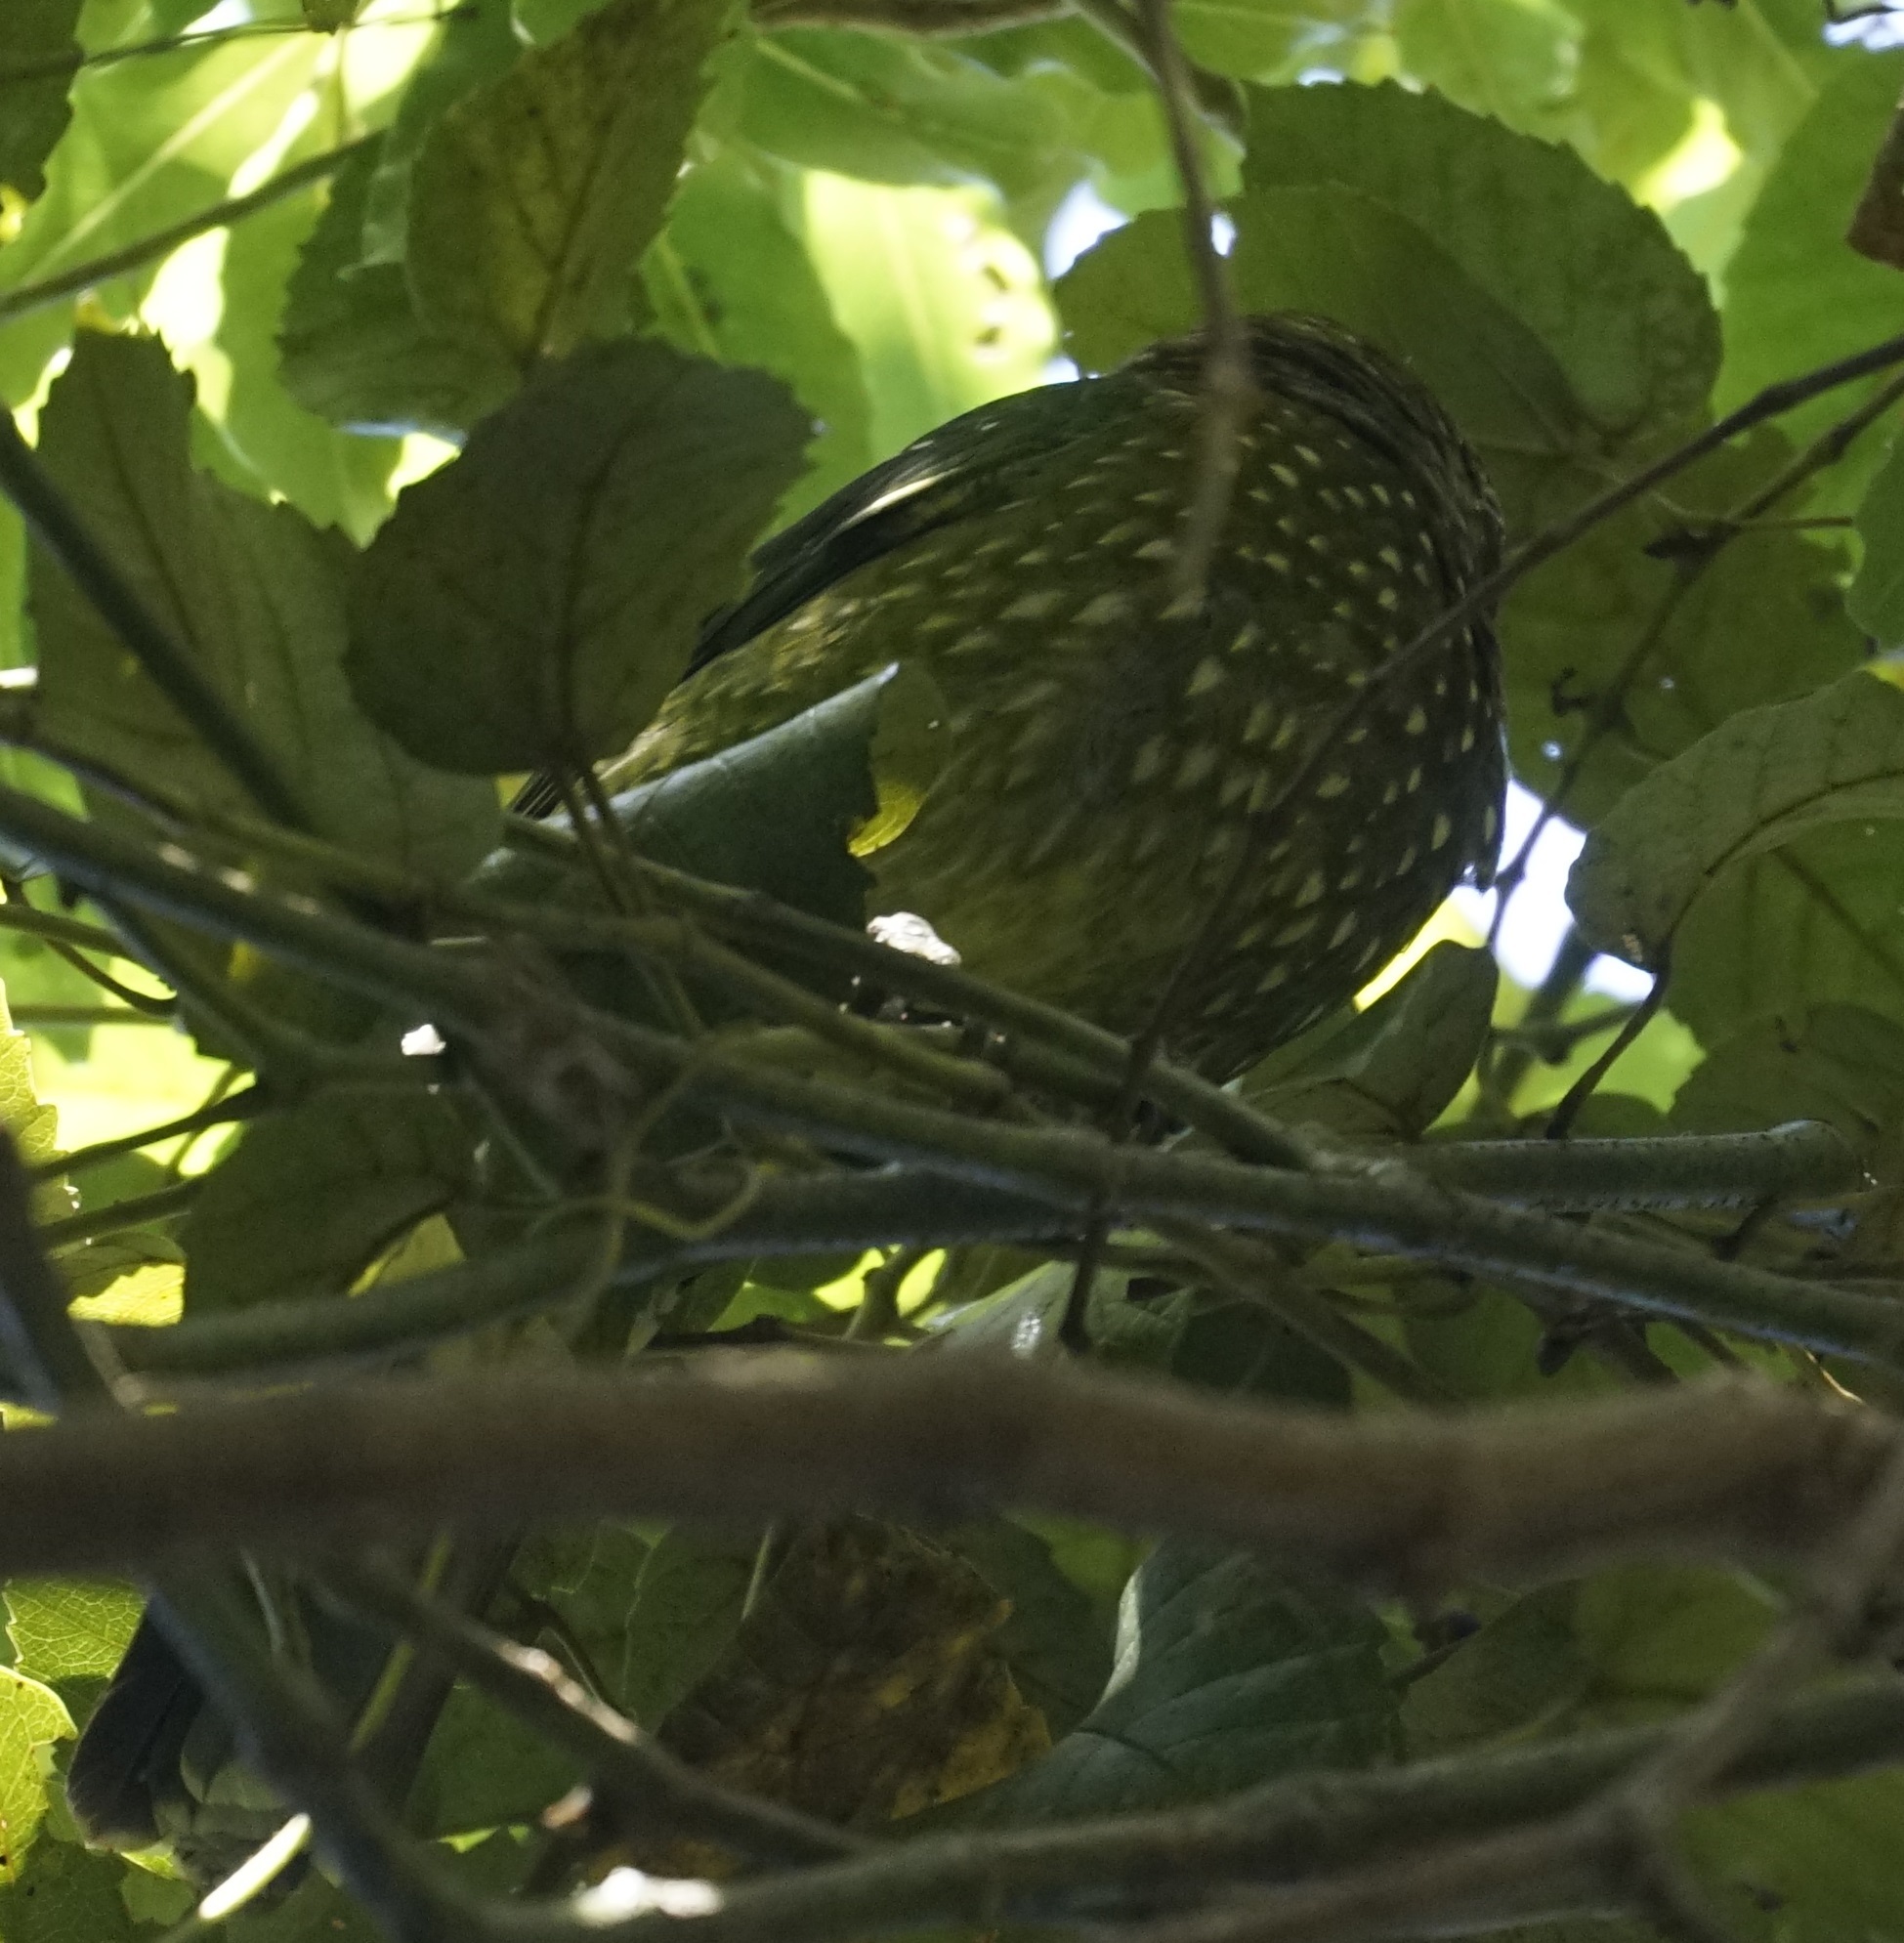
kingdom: Animalia
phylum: Chordata
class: Aves
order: Passeriformes
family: Ptilonorhynchidae
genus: Ailuroedus
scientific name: Ailuroedus crassirostris
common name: Green catbird
